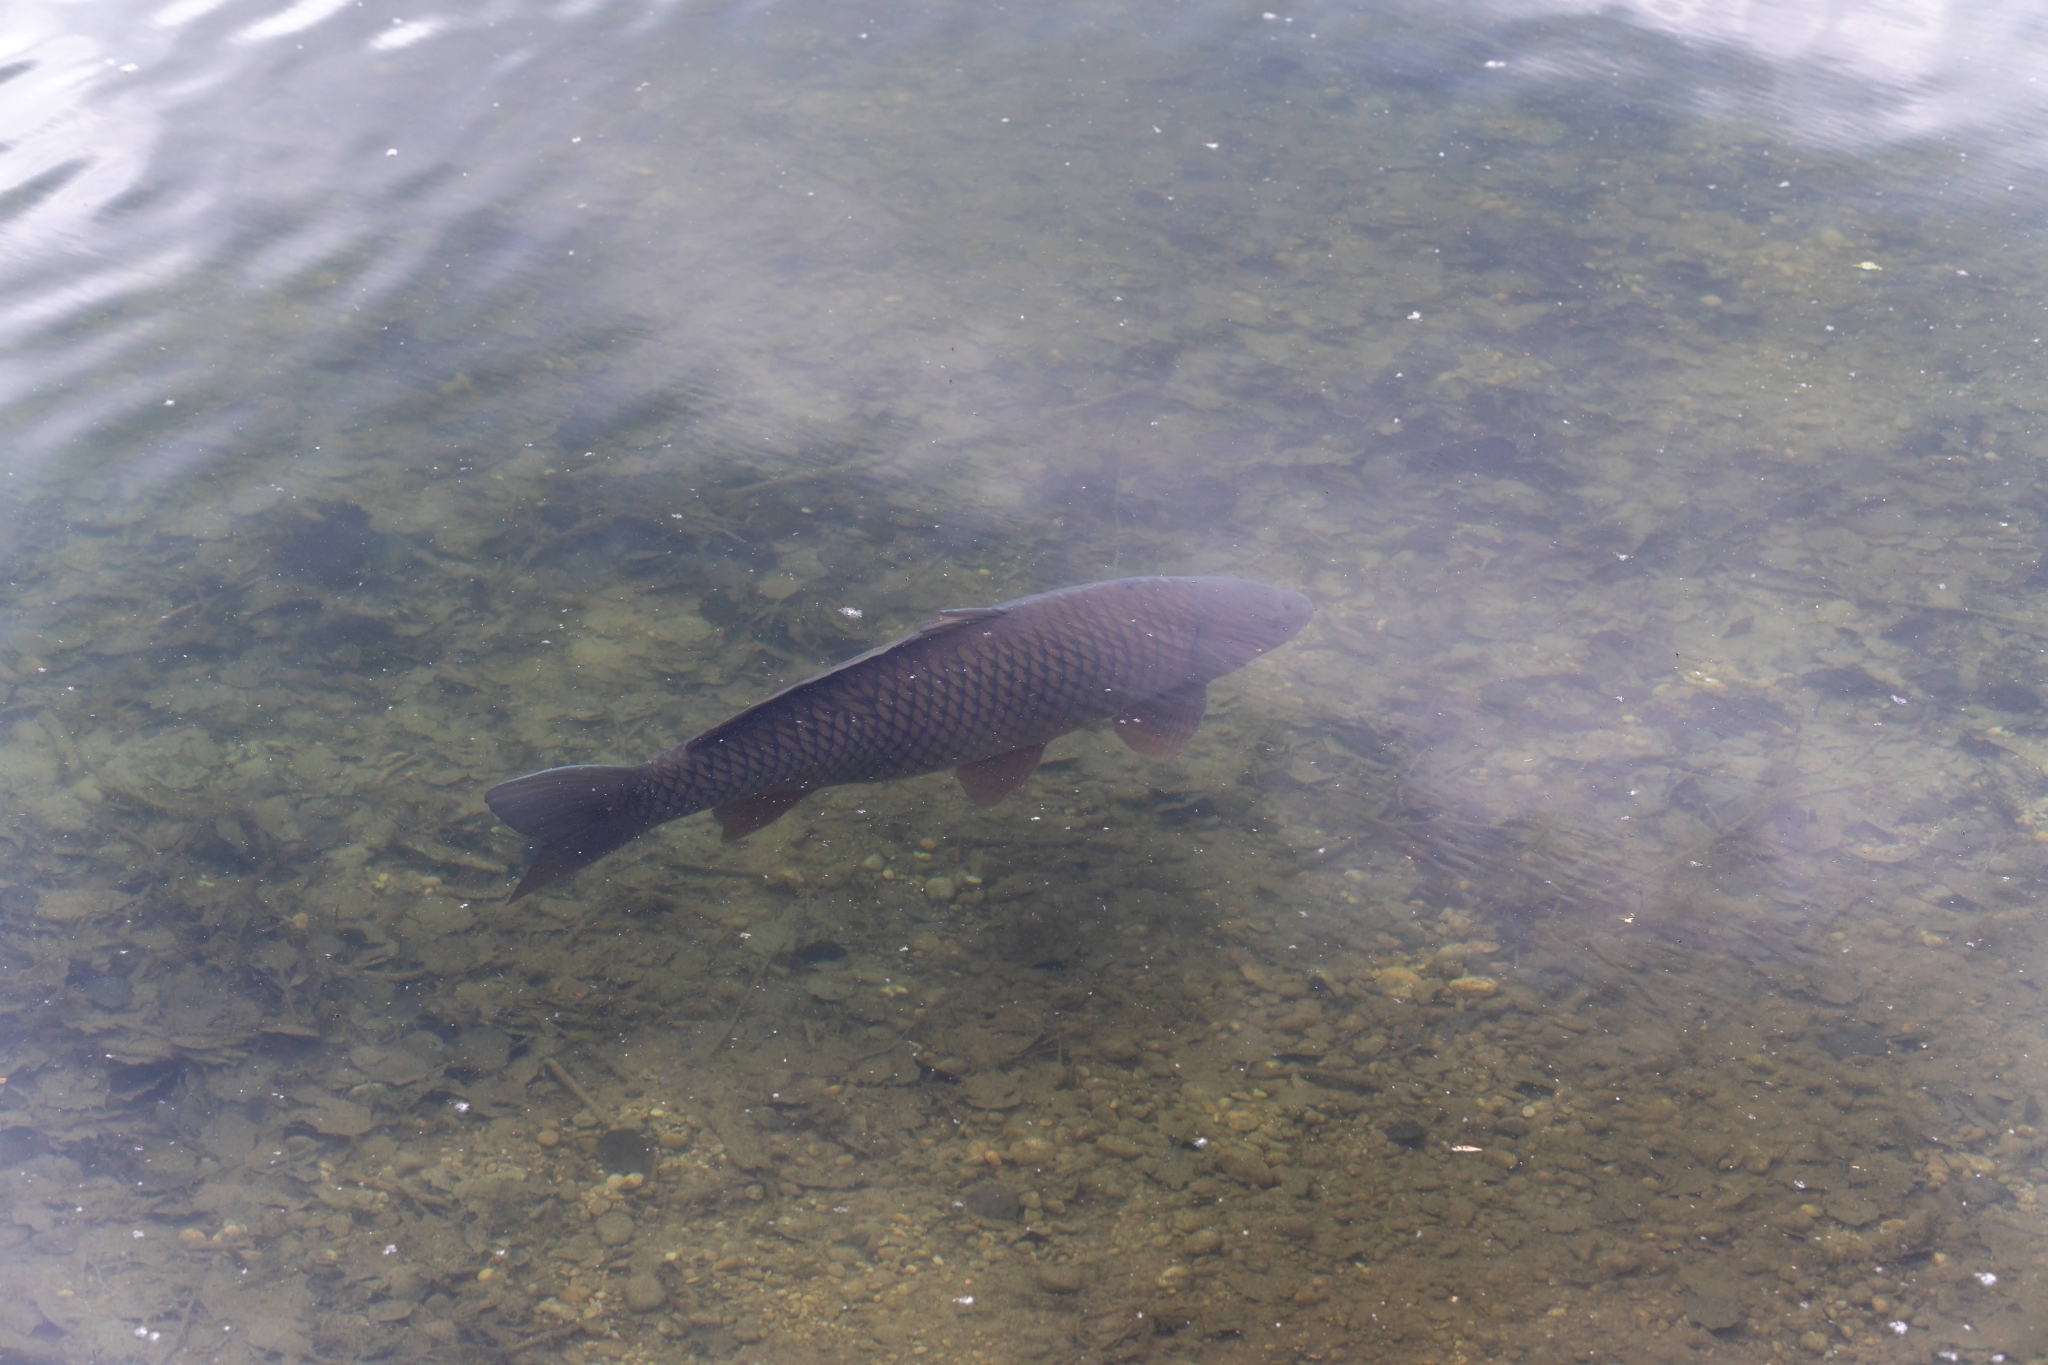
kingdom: Animalia
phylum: Chordata
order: Cypriniformes
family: Cyprinidae
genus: Cyprinus
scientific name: Cyprinus carpio
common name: Common carp
